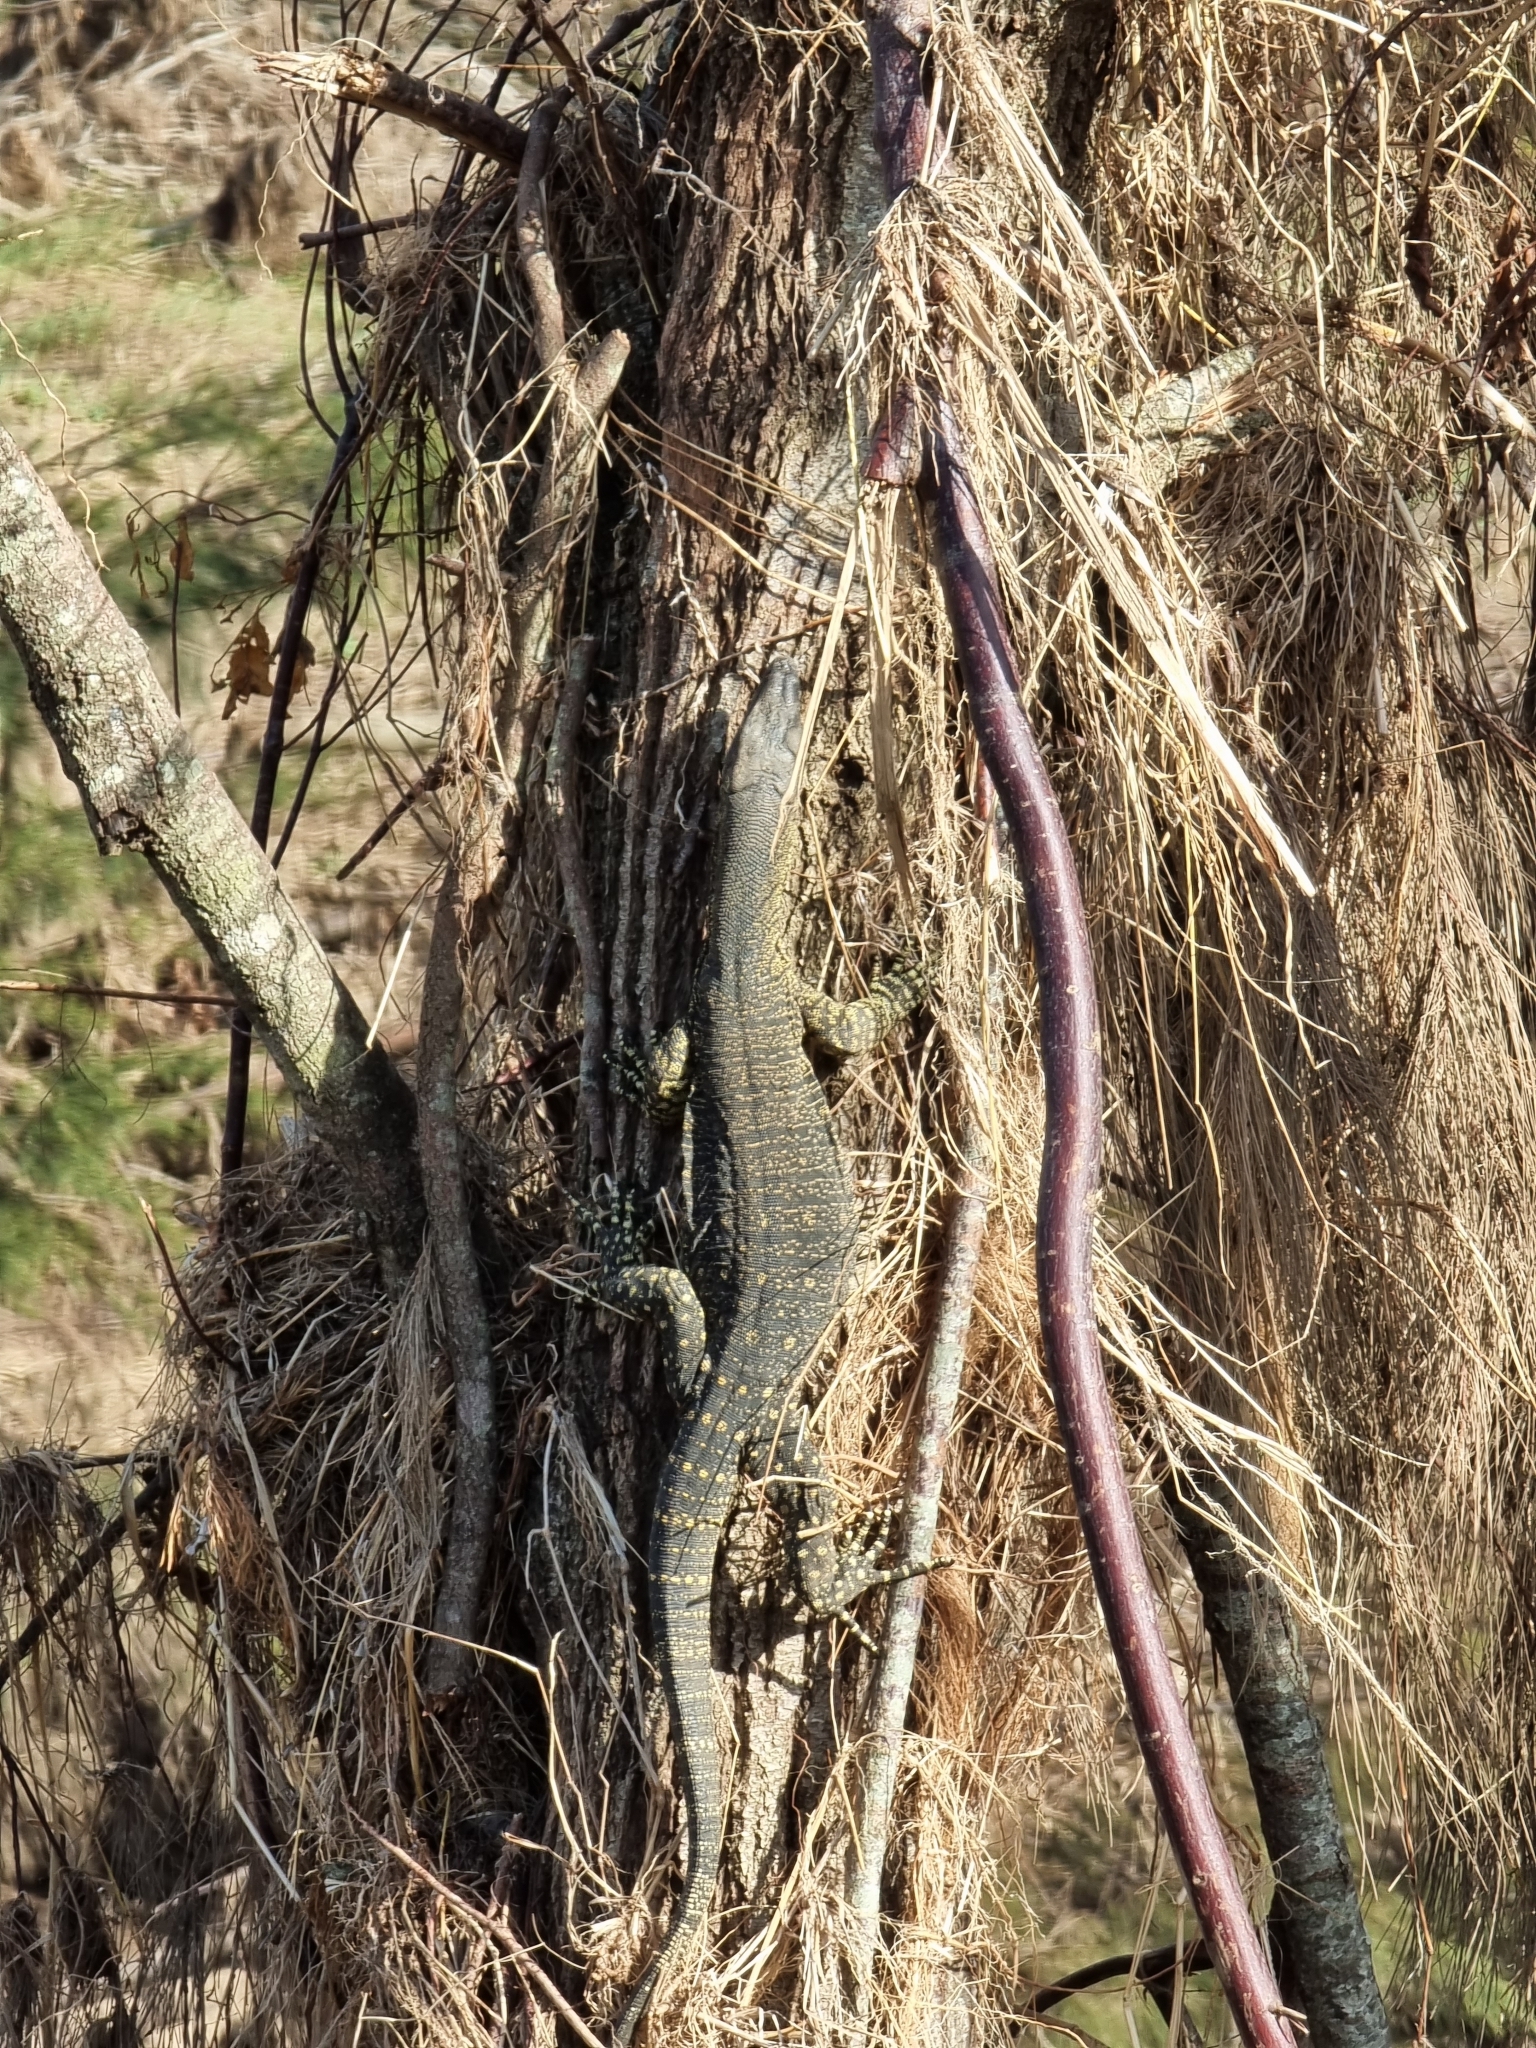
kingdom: Animalia
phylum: Chordata
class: Squamata
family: Varanidae
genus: Varanus
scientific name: Varanus varius
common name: Lace monitor
